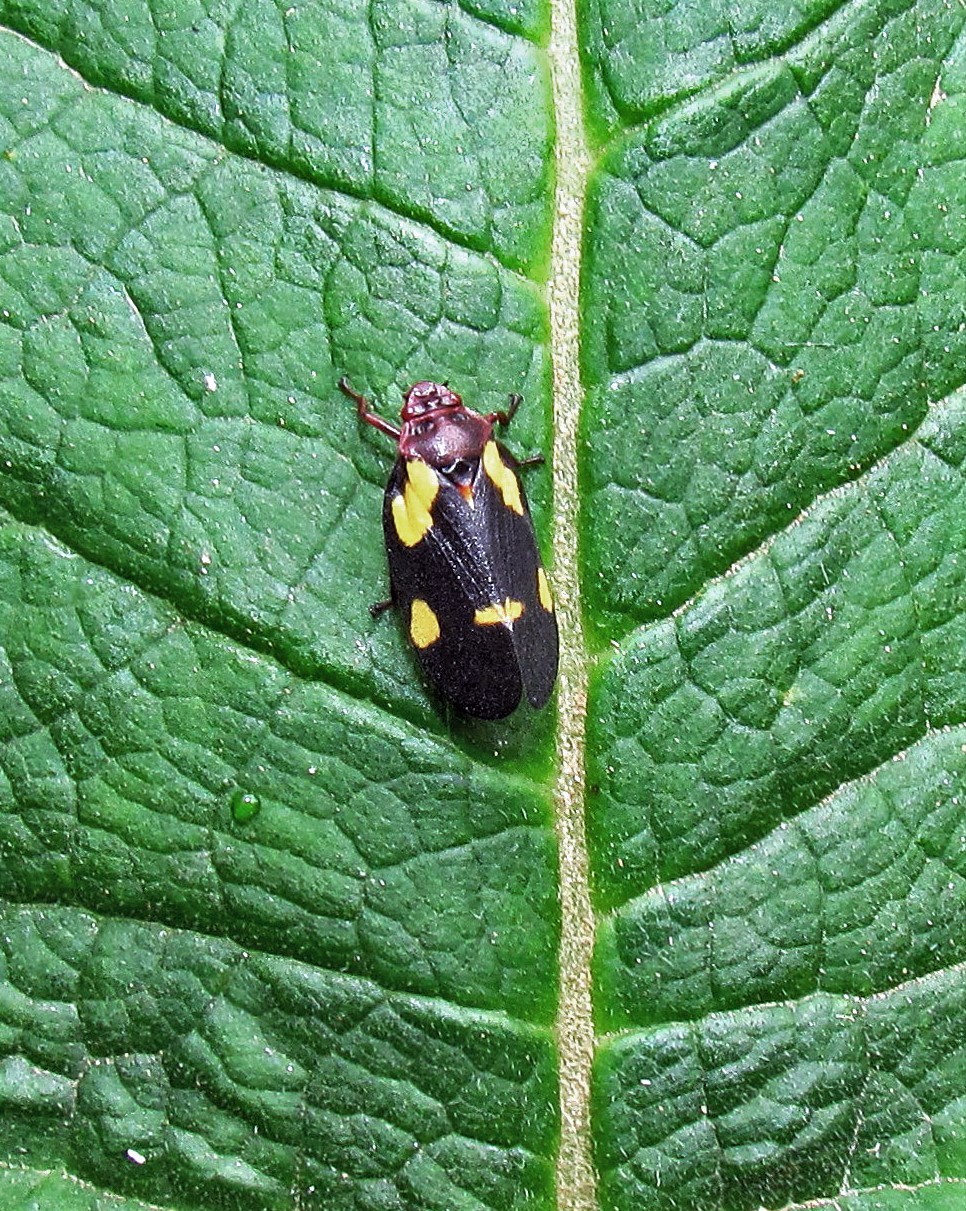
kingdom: Animalia
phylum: Arthropoda
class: Insecta
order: Hemiptera
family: Cercopidae
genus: Sphenorhina
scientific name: Sphenorhina limbata
